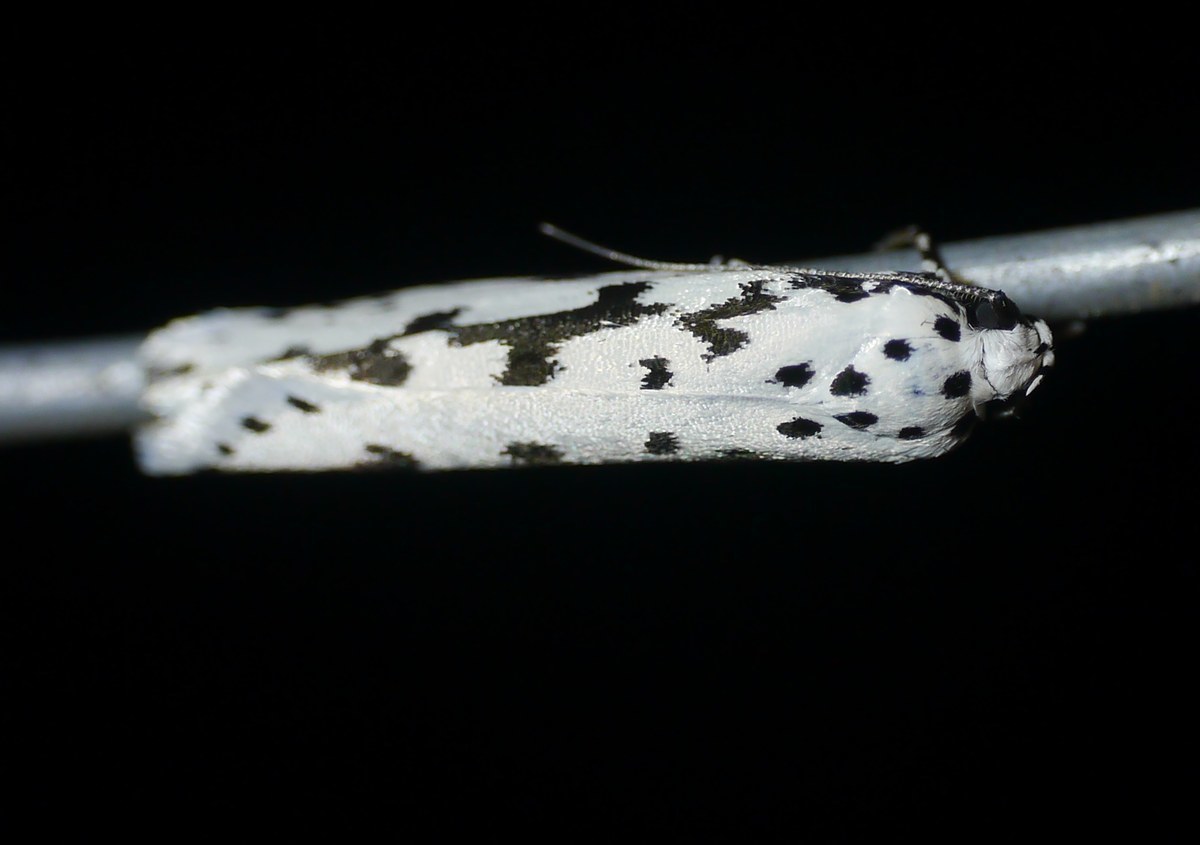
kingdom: Animalia
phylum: Arthropoda
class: Insecta
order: Lepidoptera
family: Ethmiidae
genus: Ethmia
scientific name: Ethmia candidella
